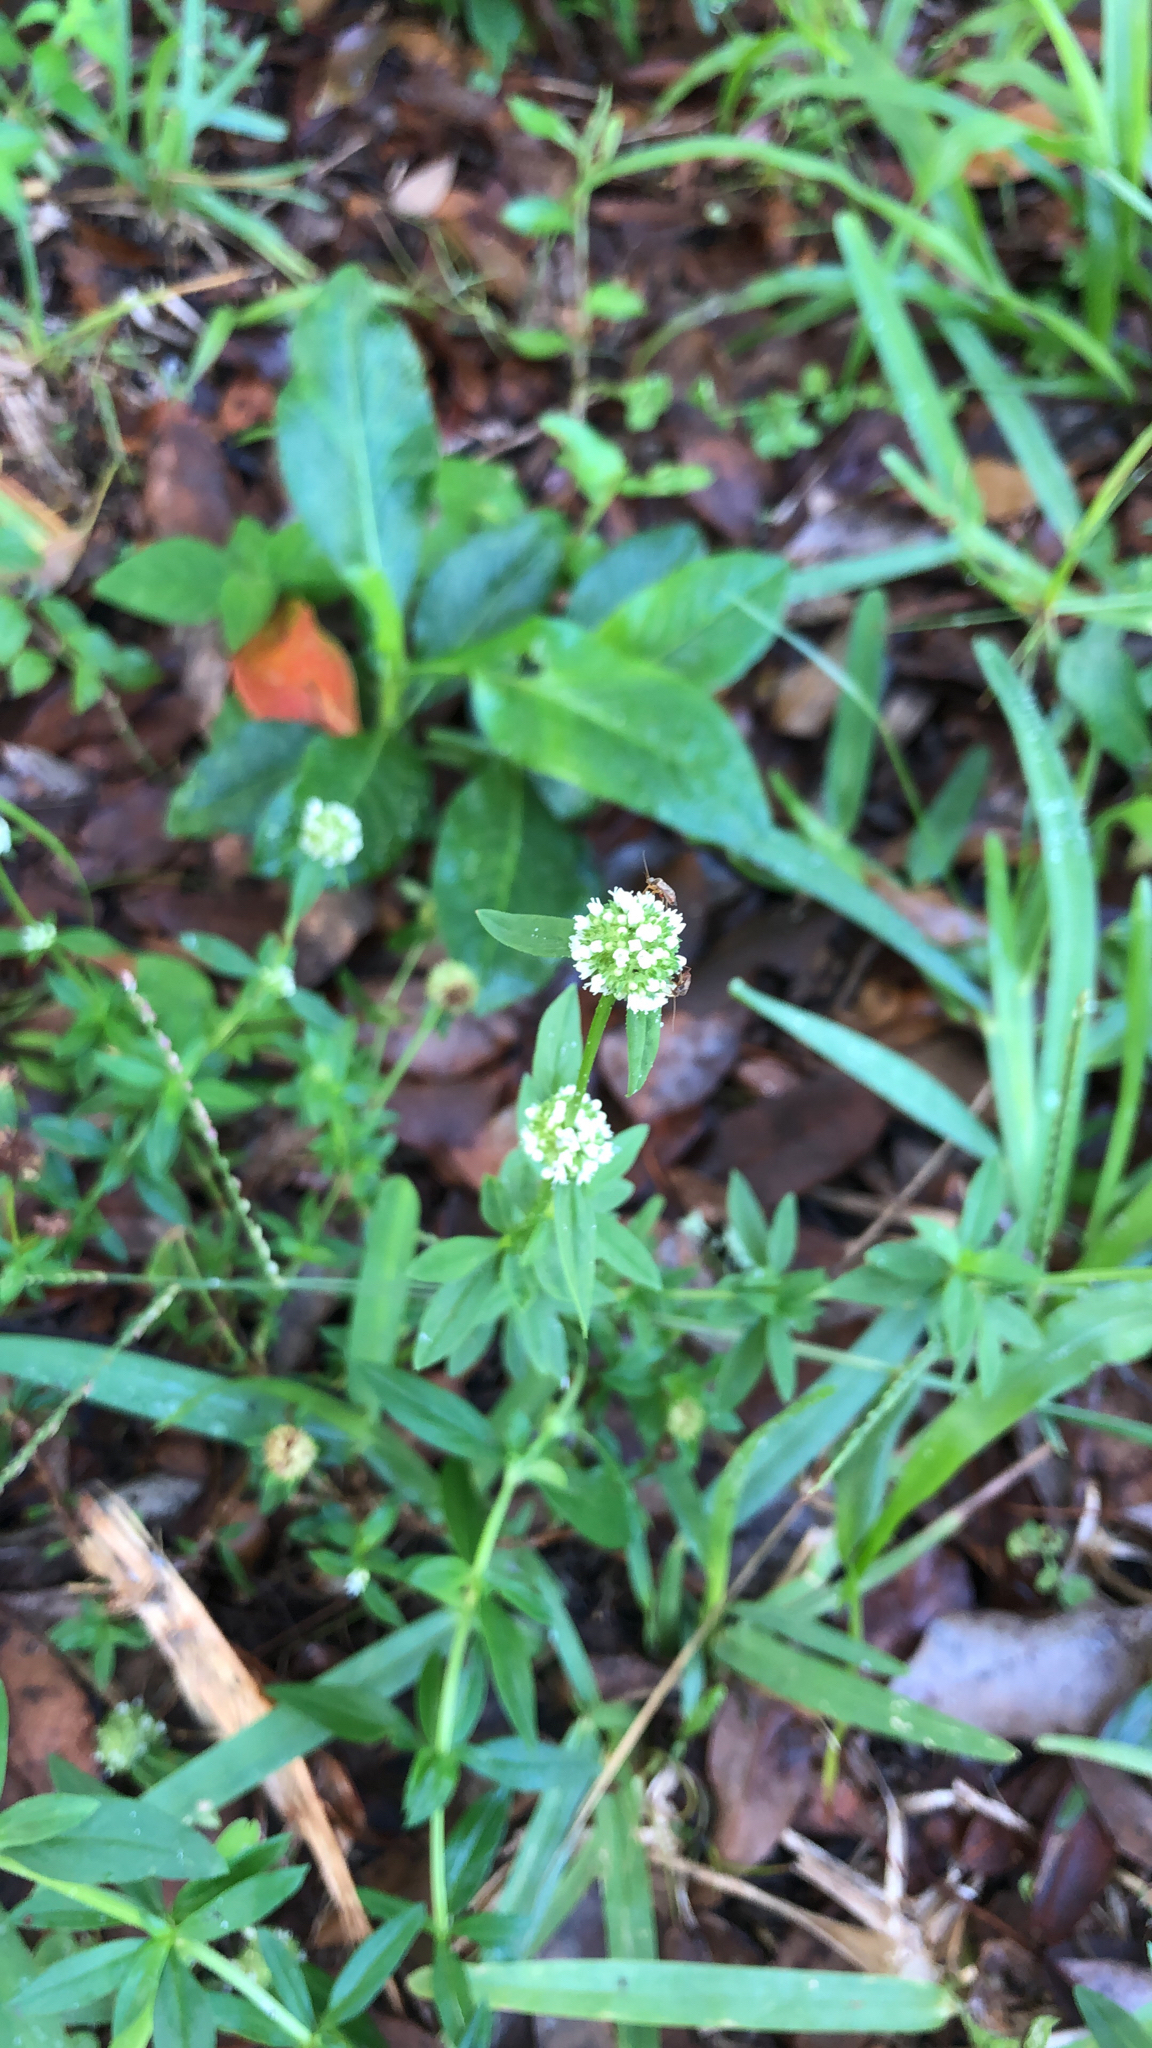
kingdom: Plantae
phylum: Tracheophyta
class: Magnoliopsida
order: Gentianales
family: Rubiaceae
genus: Spermacoce
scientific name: Spermacoce verticillata
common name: Shrubby false buttonweed
